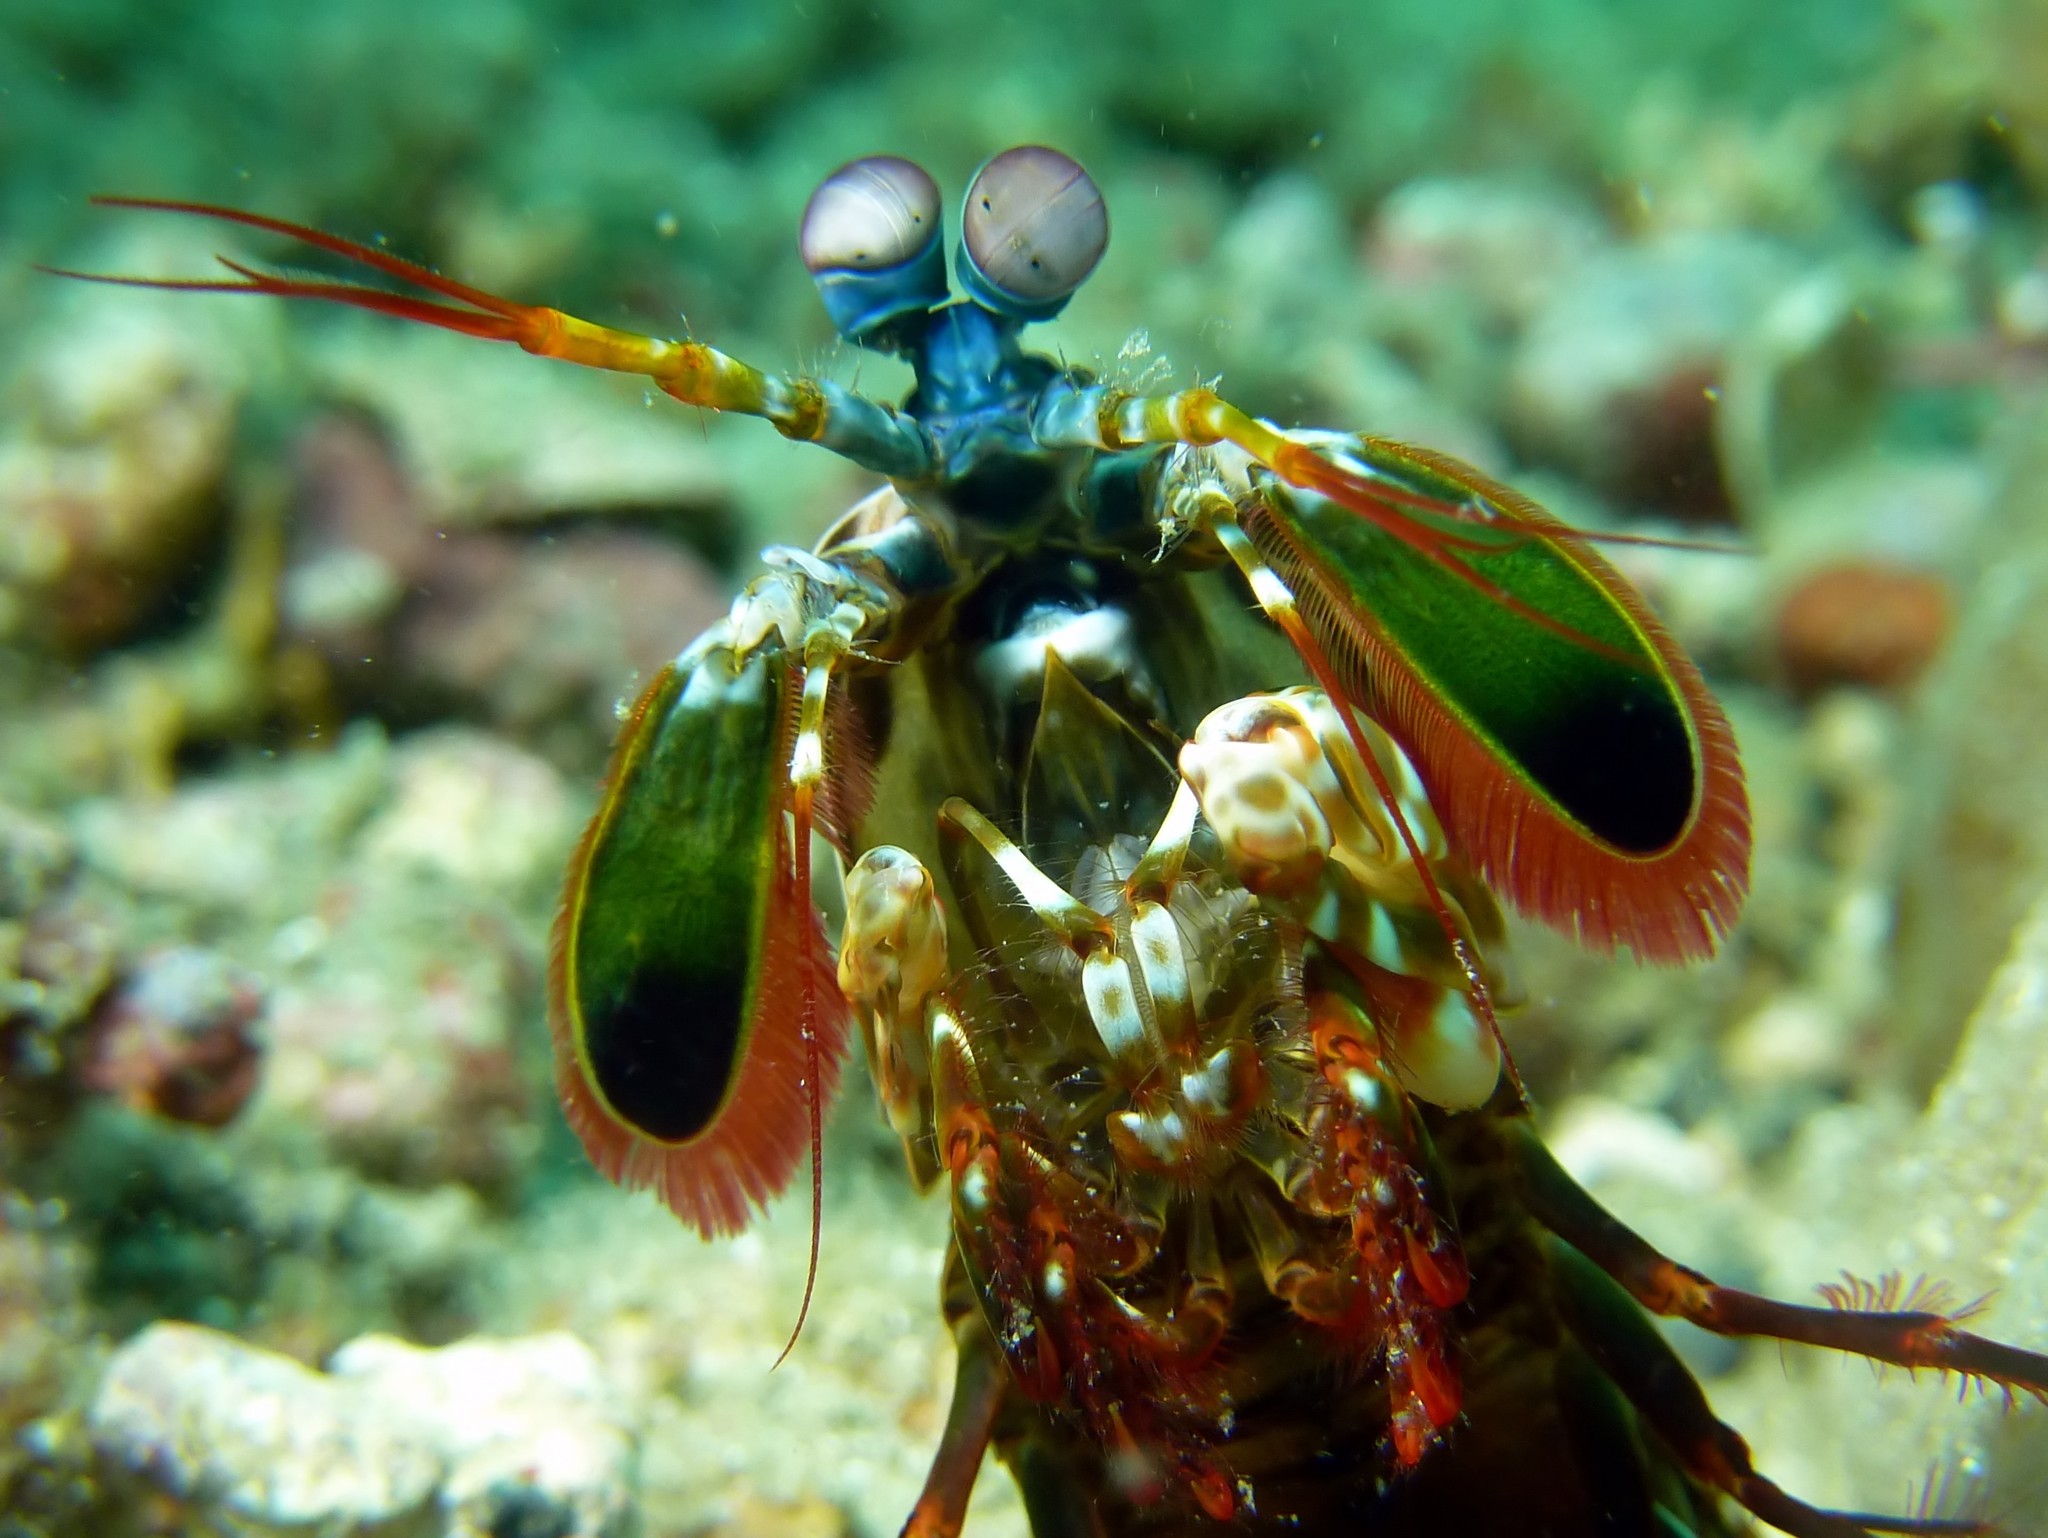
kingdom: Animalia
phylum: Arthropoda
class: Malacostraca
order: Stomatopoda
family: Odontodactylidae
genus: Odontodactylus
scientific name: Odontodactylus scyllarus
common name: Peacock mantis shrimp
